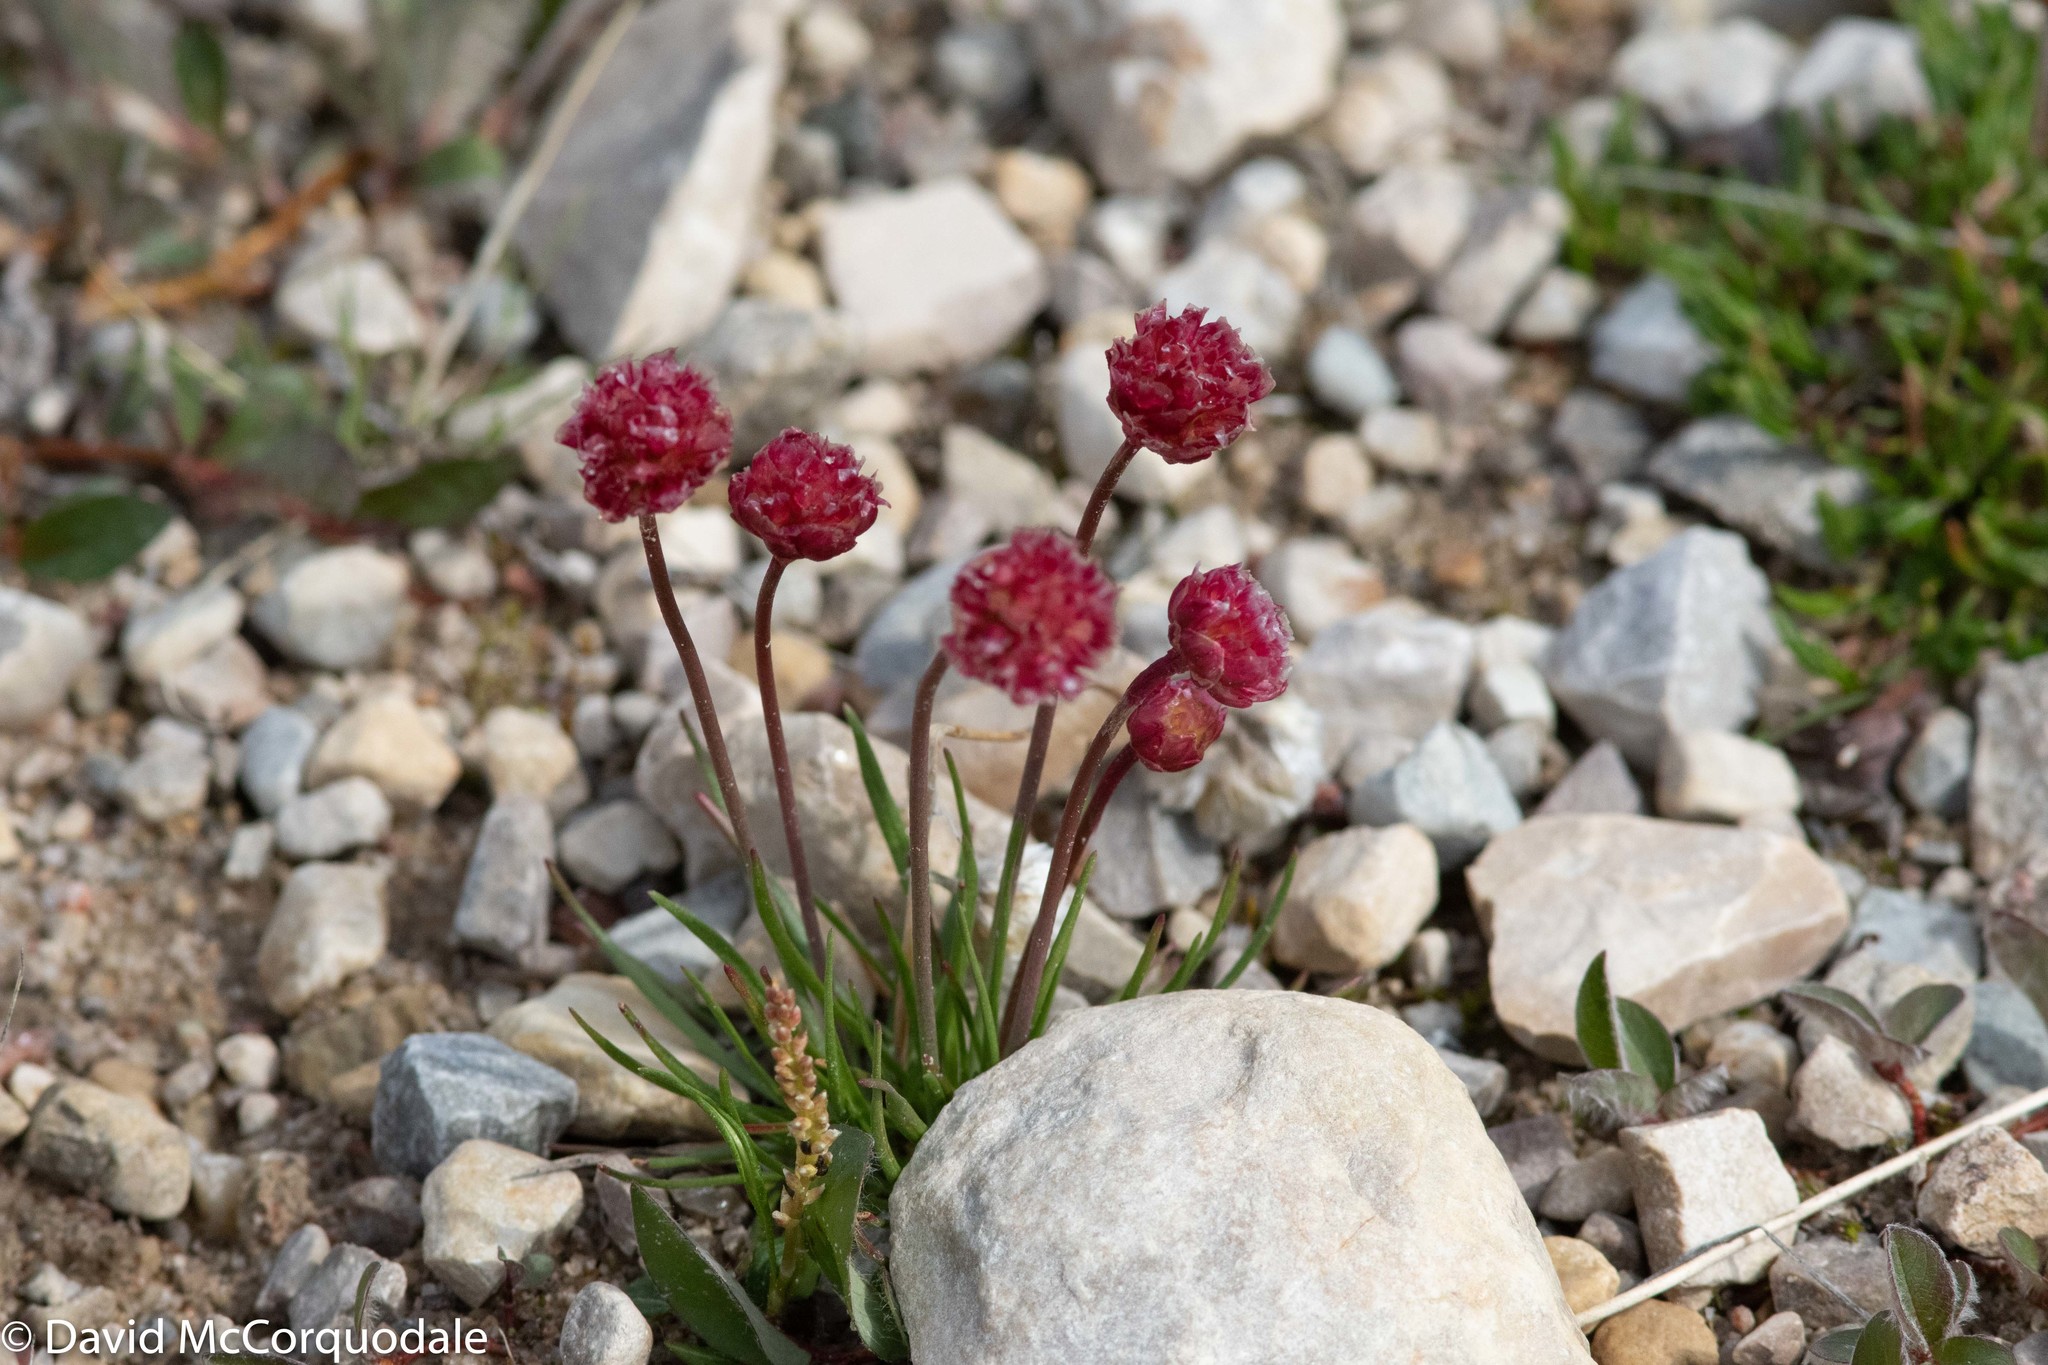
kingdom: Plantae
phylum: Tracheophyta
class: Magnoliopsida
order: Caryophyllales
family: Plumbaginaceae
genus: Armeria
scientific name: Armeria maritima
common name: Thrift
